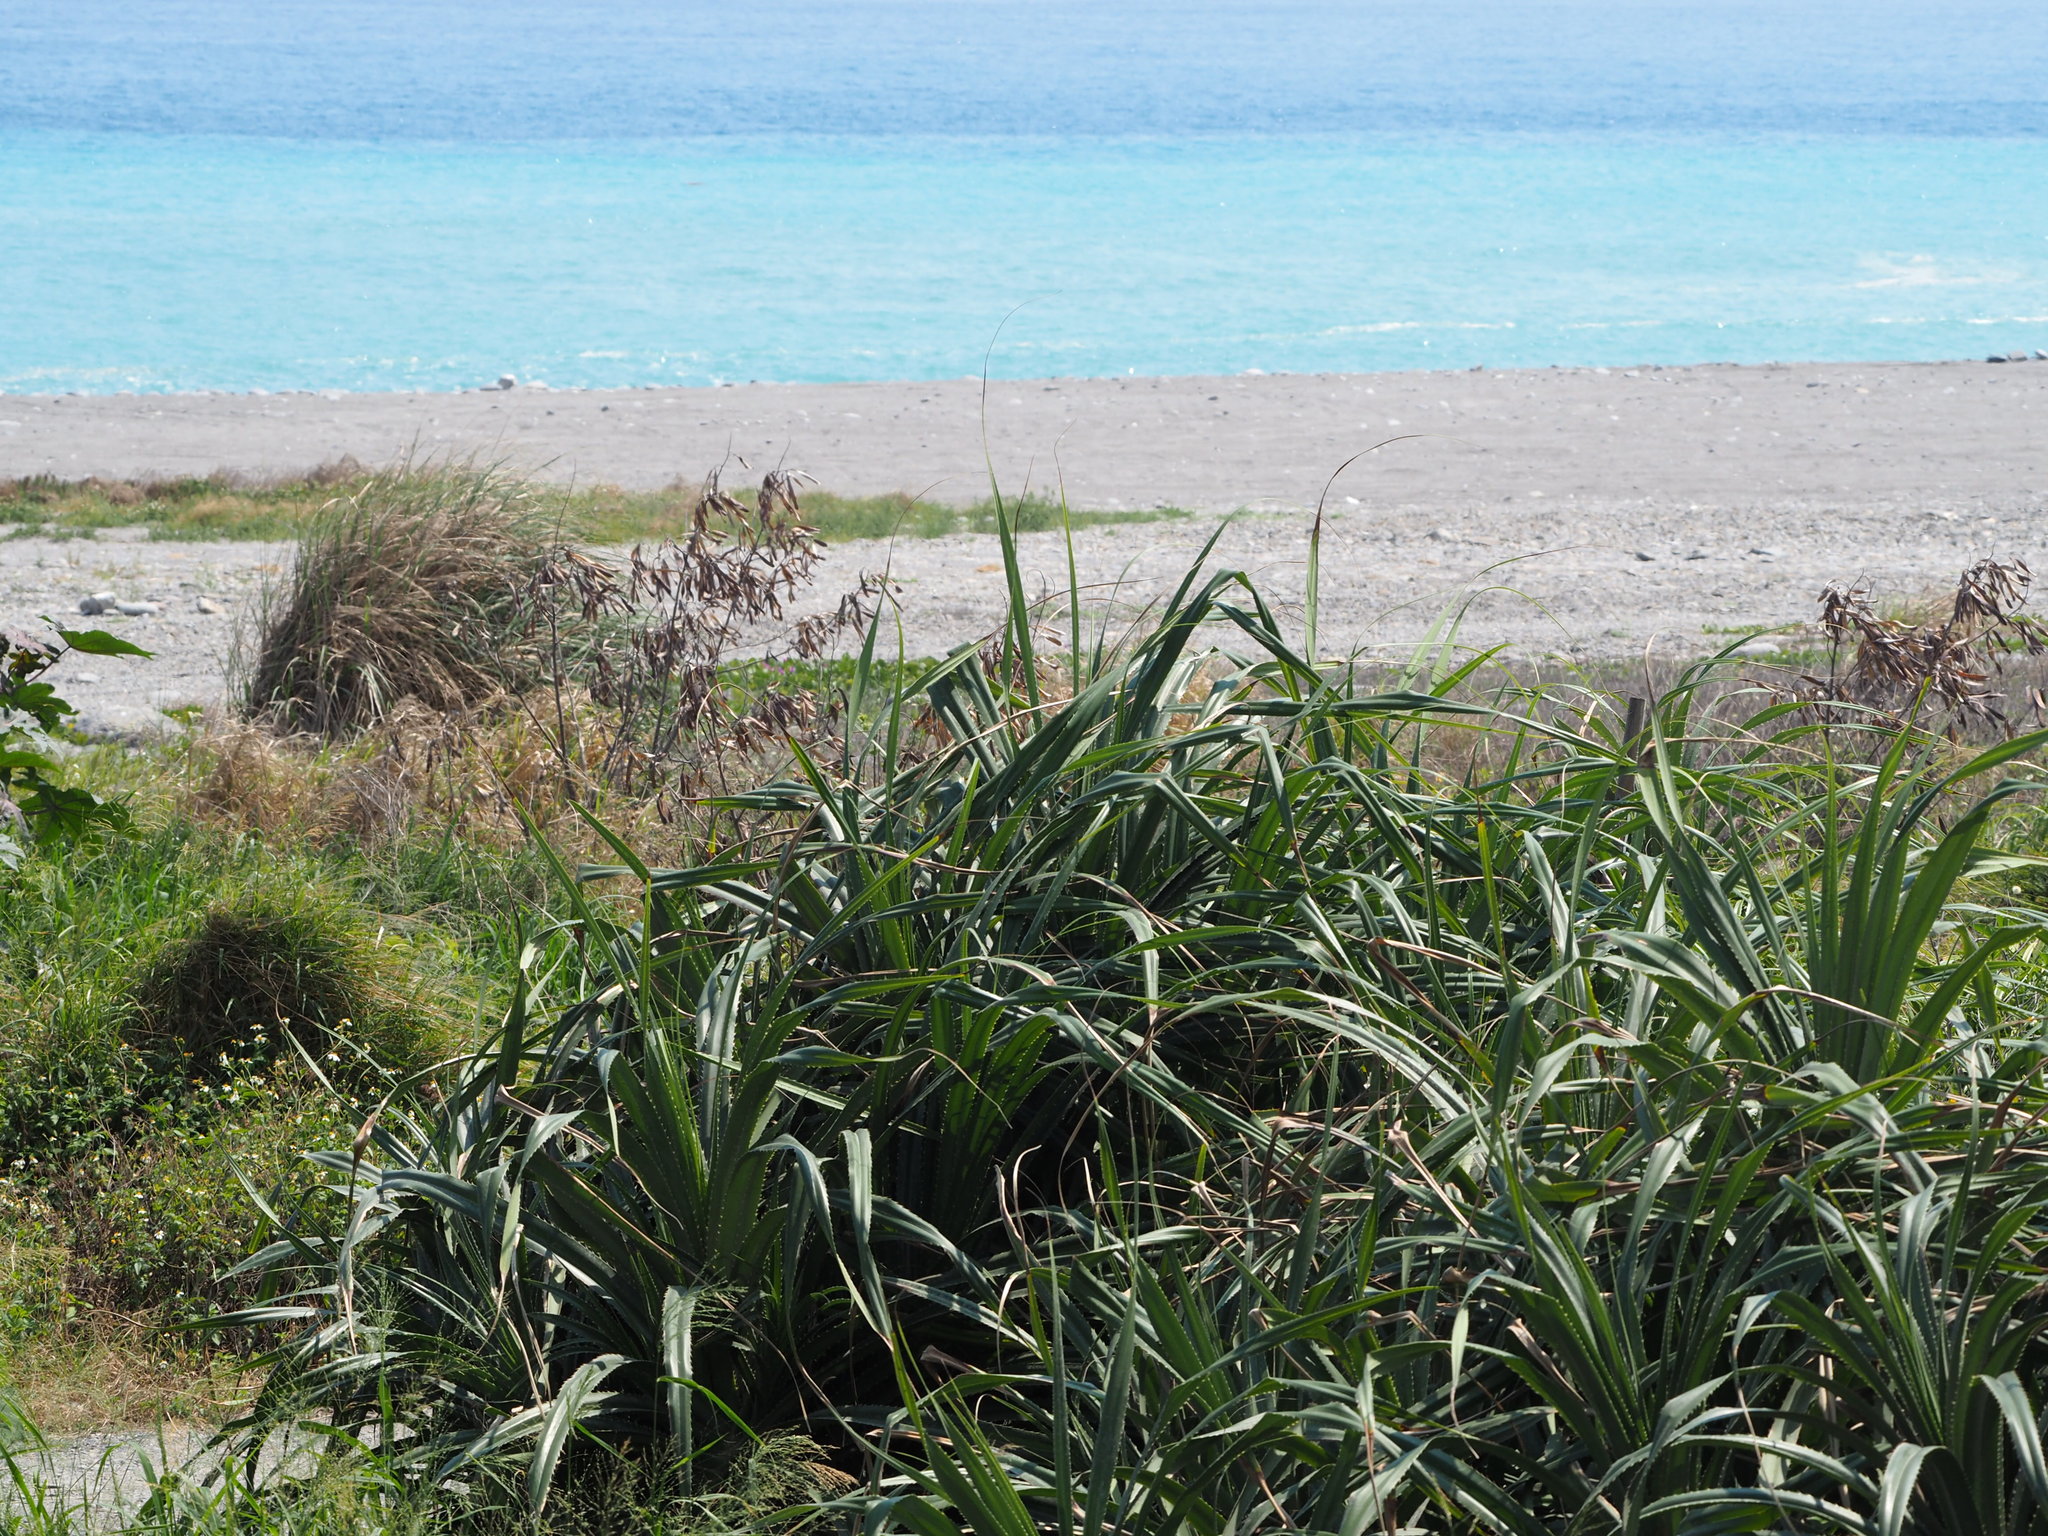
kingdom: Plantae
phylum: Tracheophyta
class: Liliopsida
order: Pandanales
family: Pandanaceae
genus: Pandanus
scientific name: Pandanus odorifer
